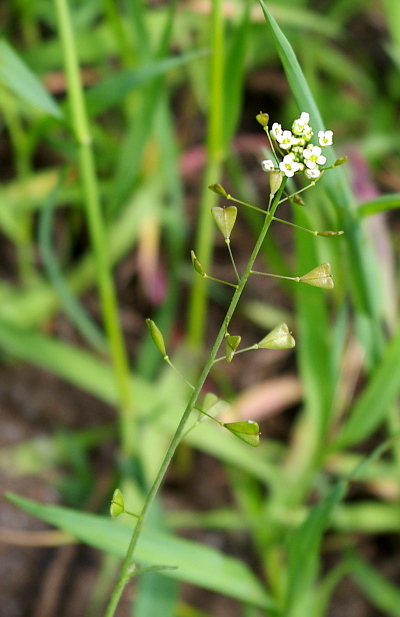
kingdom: Plantae
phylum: Tracheophyta
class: Magnoliopsida
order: Brassicales
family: Brassicaceae
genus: Capsella
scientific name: Capsella bursa-pastoris
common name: Shepherd's purse
